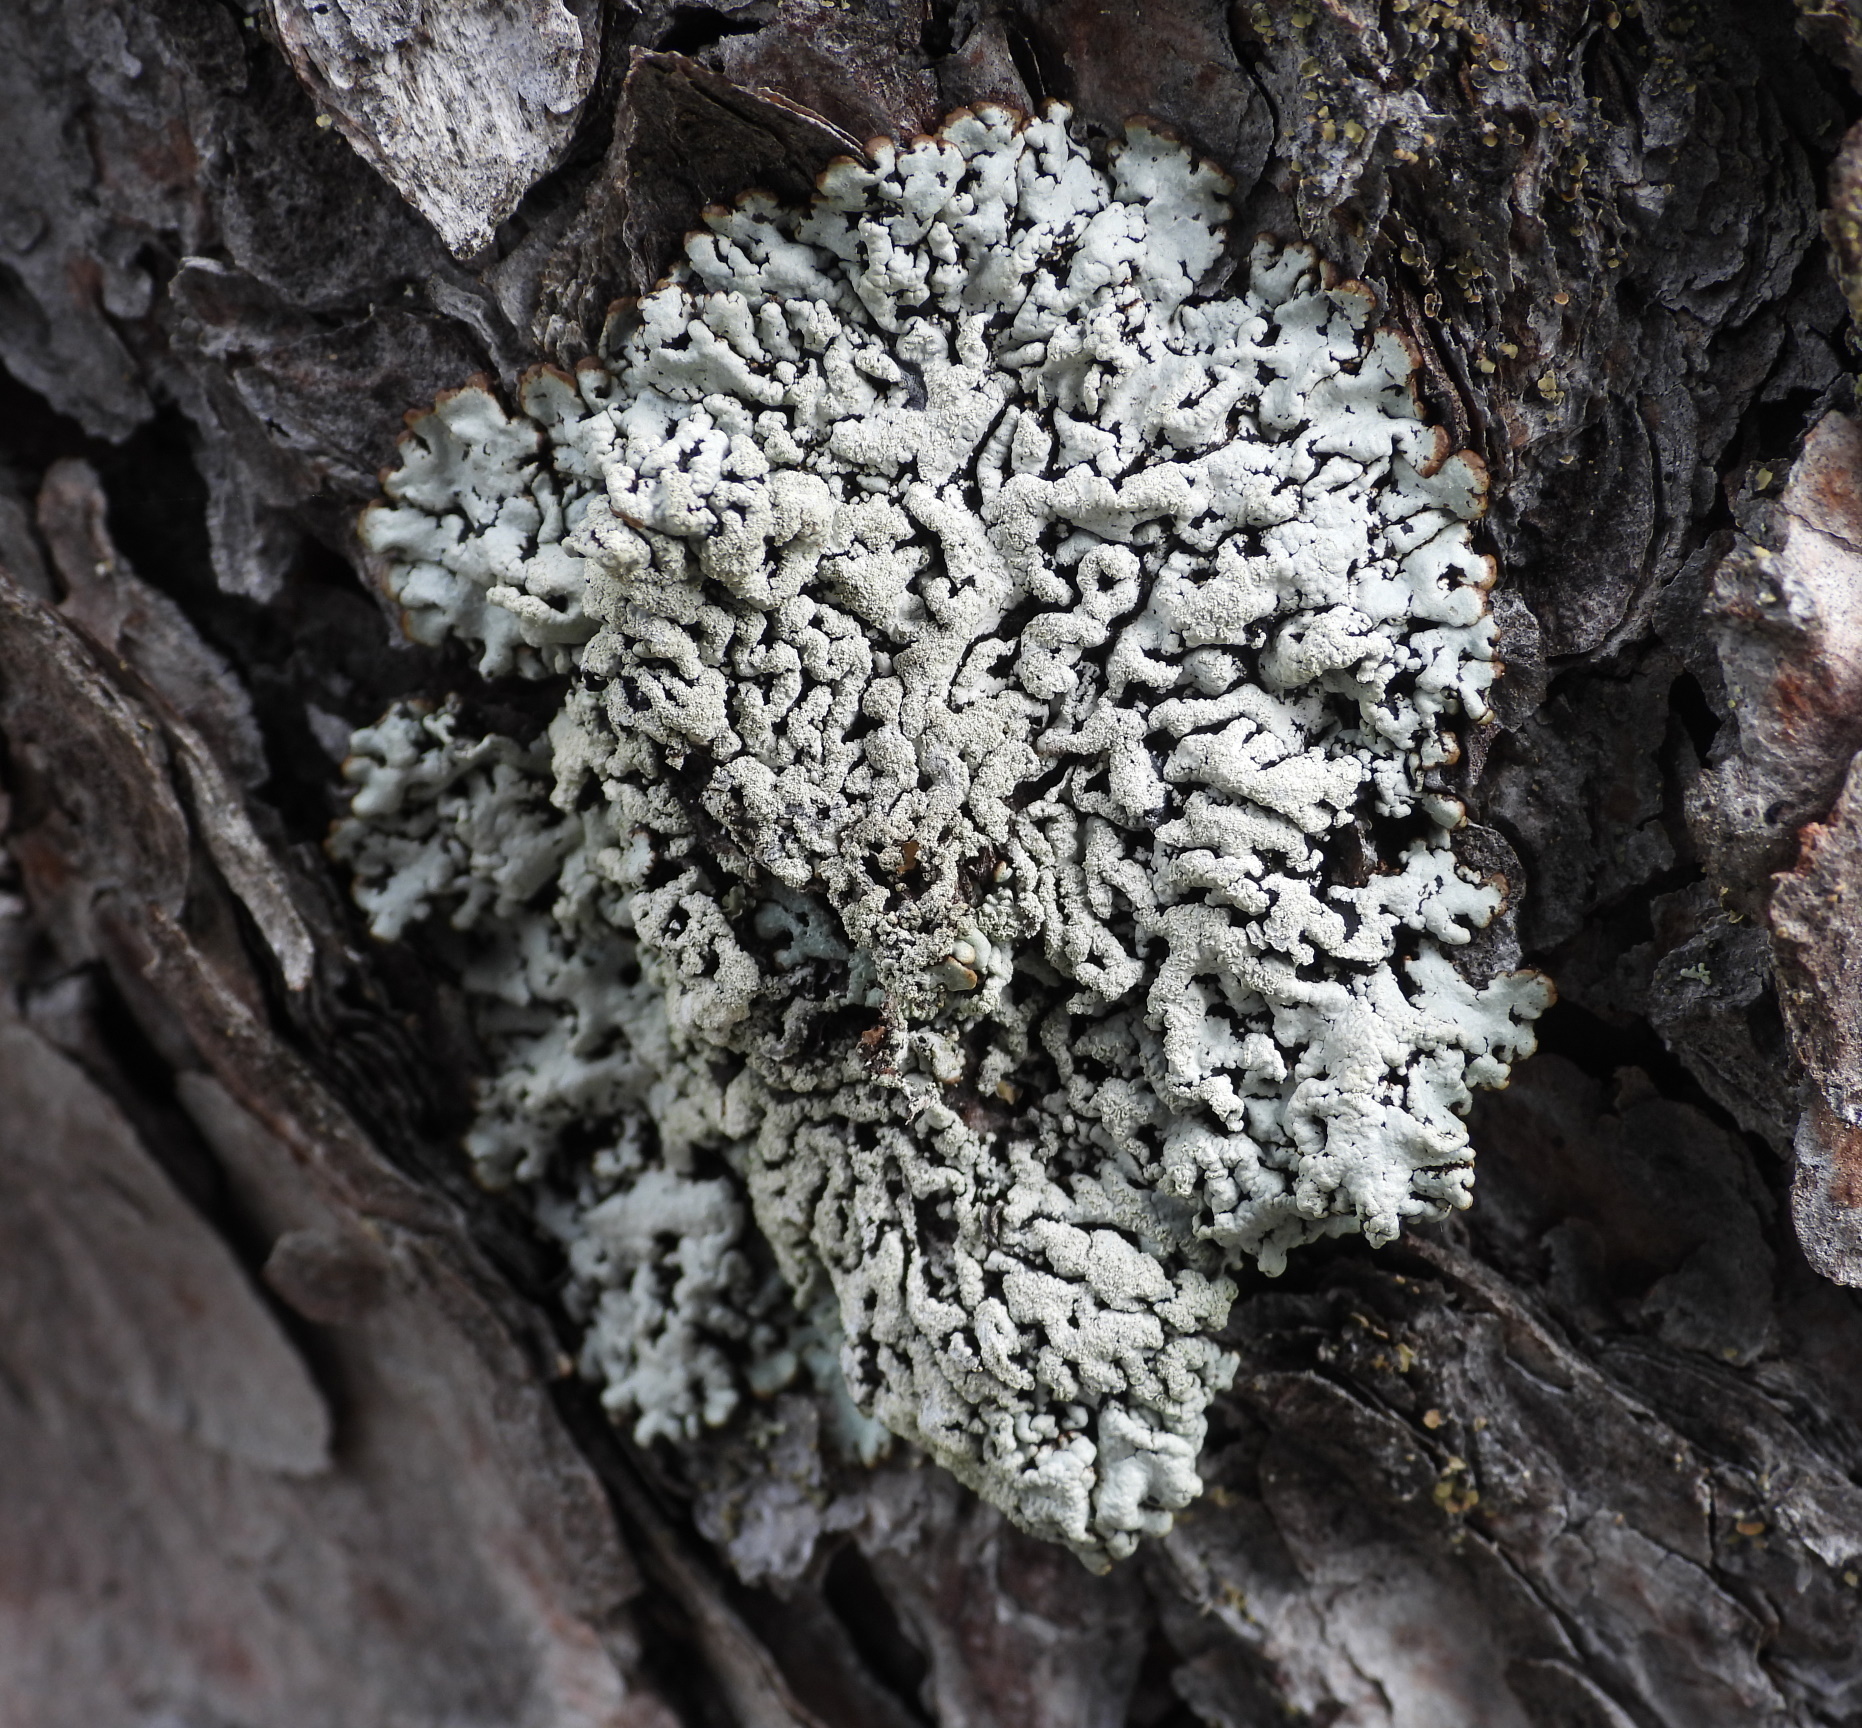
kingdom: Fungi
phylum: Ascomycota
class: Lecanoromycetes
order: Lecanorales
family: Parmeliaceae
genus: Hypogymnia
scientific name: Hypogymnia farinacea
